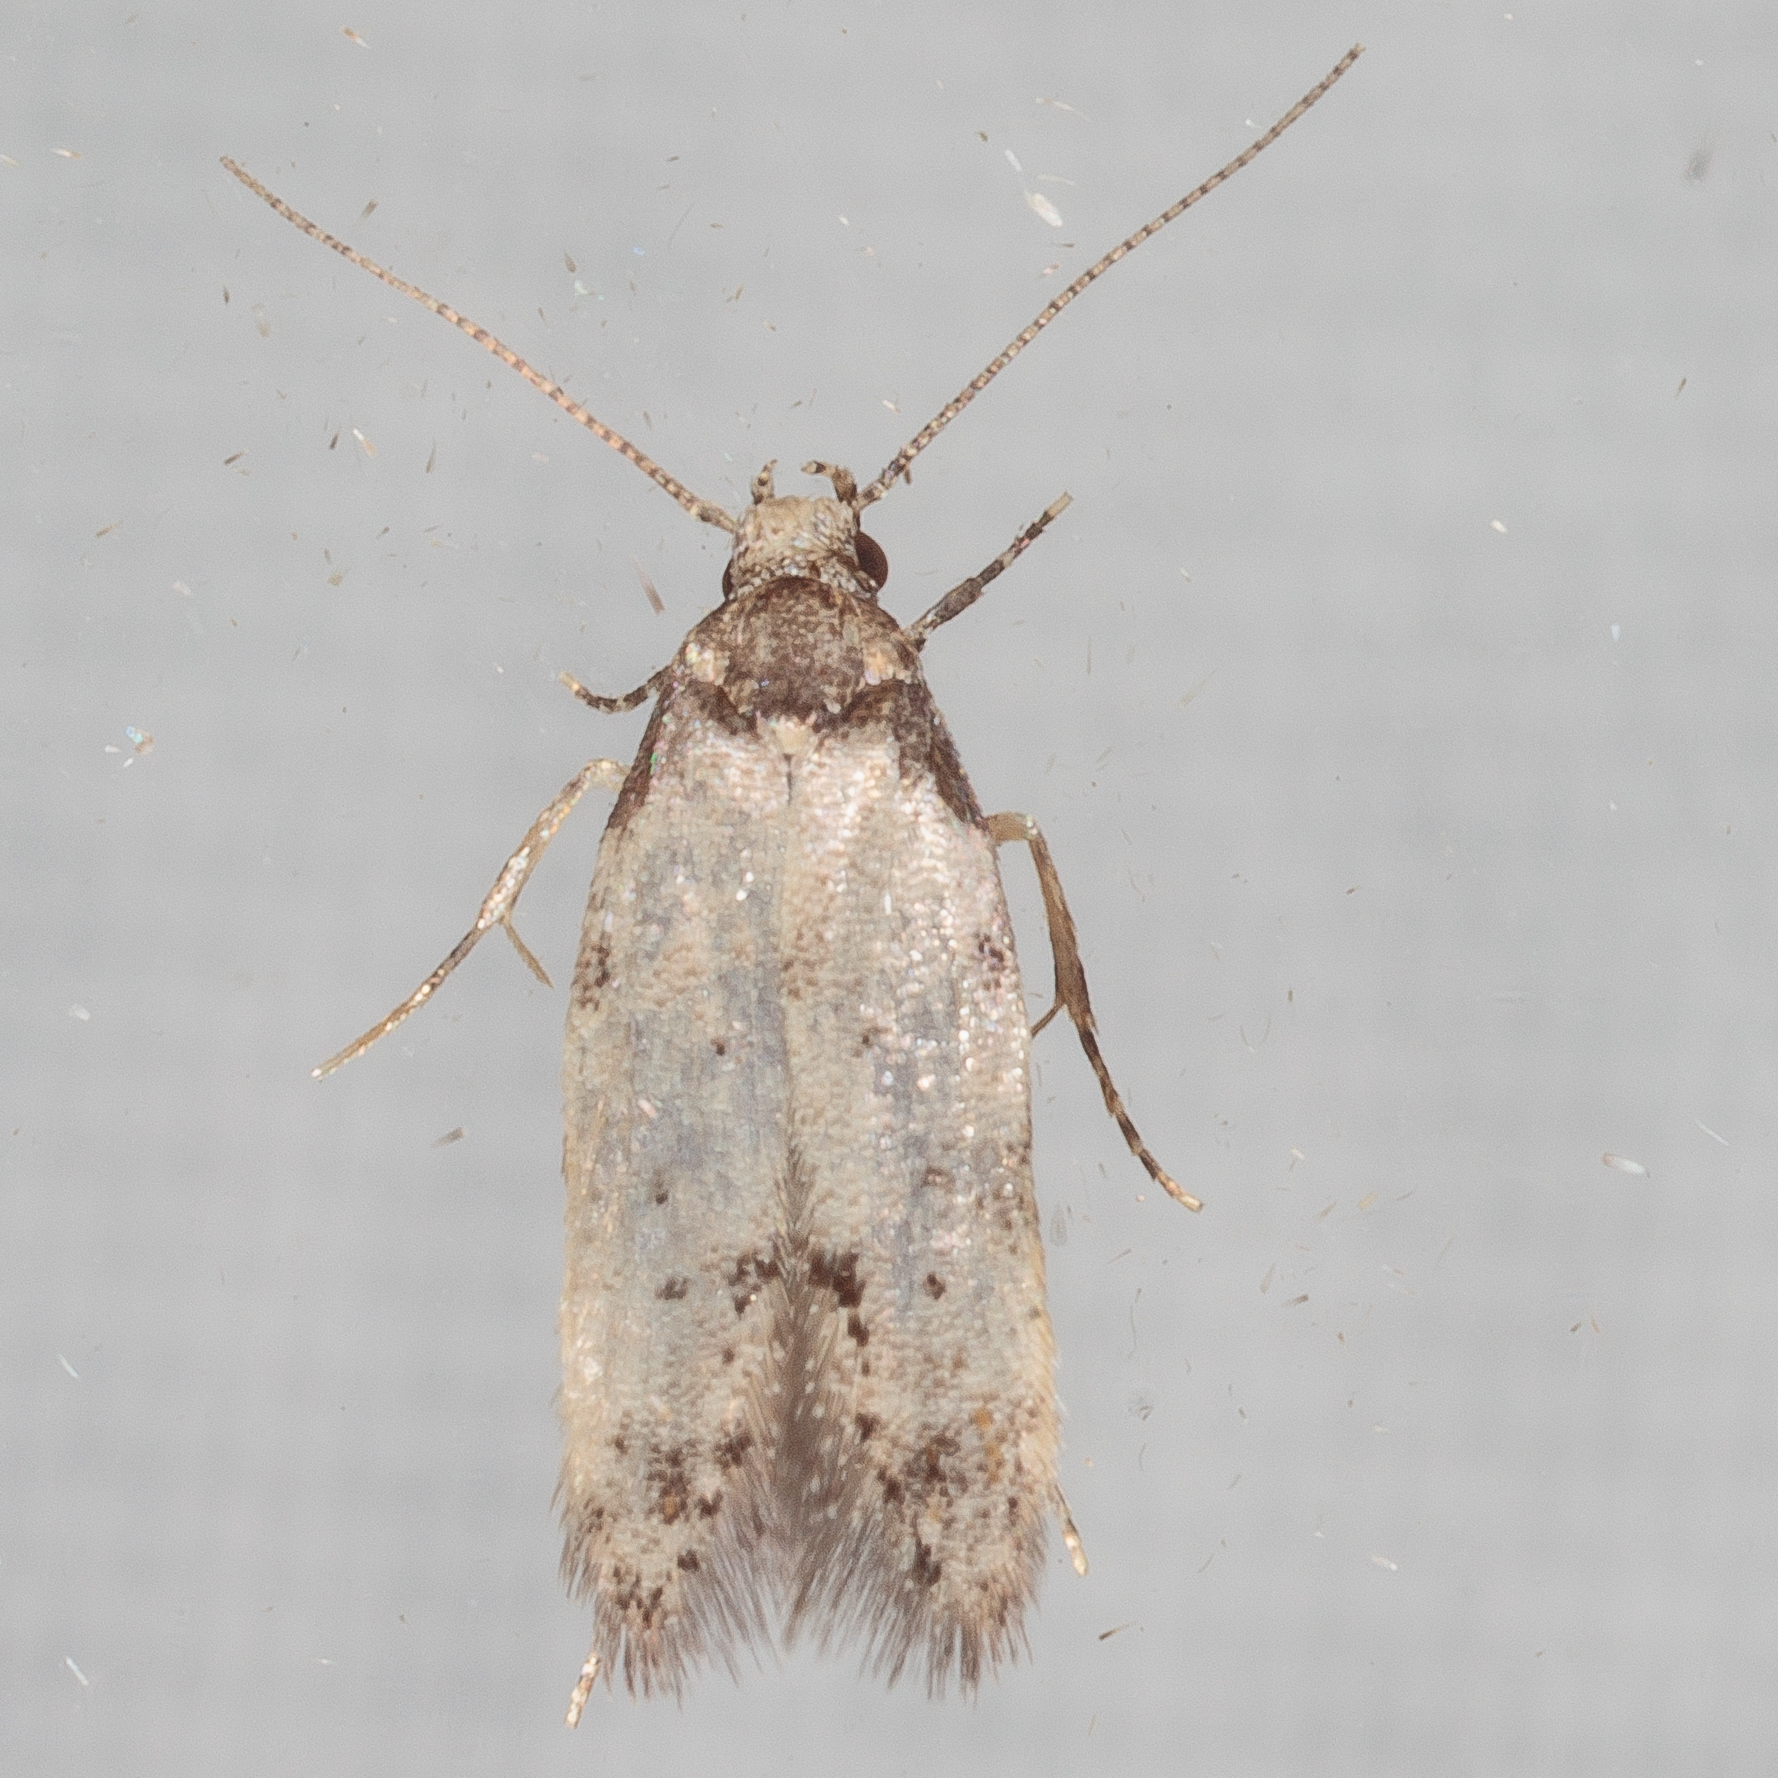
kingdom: Animalia
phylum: Arthropoda
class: Insecta
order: Lepidoptera
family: Autostichidae
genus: Taygete
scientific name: Taygete attributella
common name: Triangle-marked twirler moth
